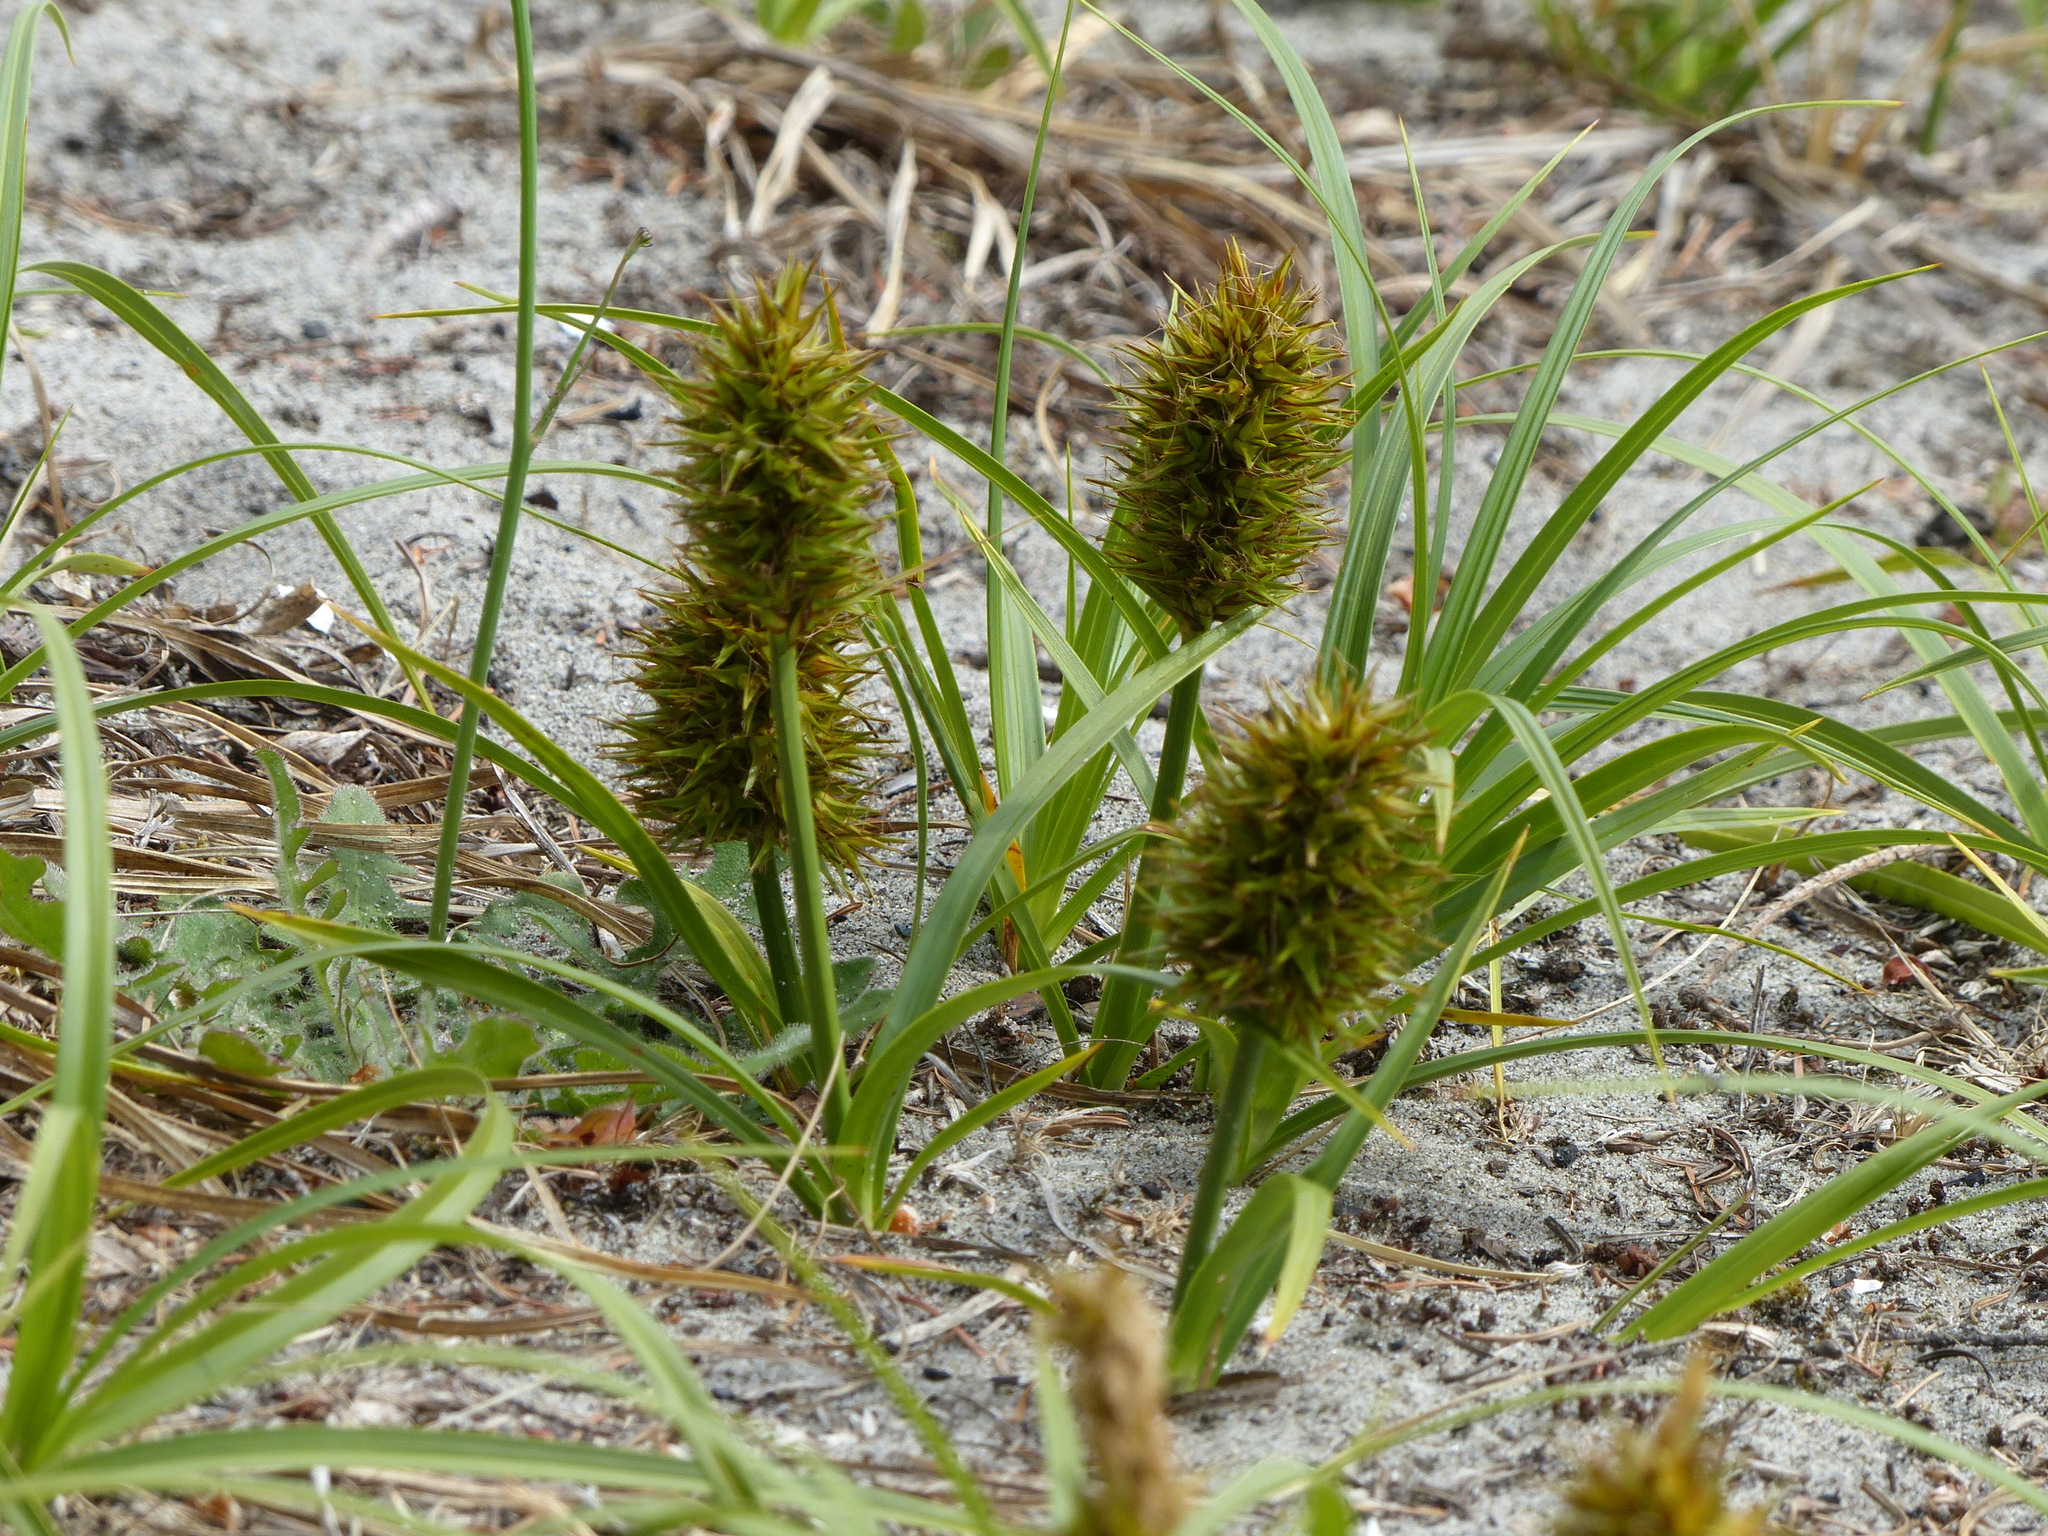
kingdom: Plantae
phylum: Tracheophyta
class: Liliopsida
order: Poales
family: Cyperaceae
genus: Carex
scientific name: Carex macrocephala
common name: Large-head sedge
